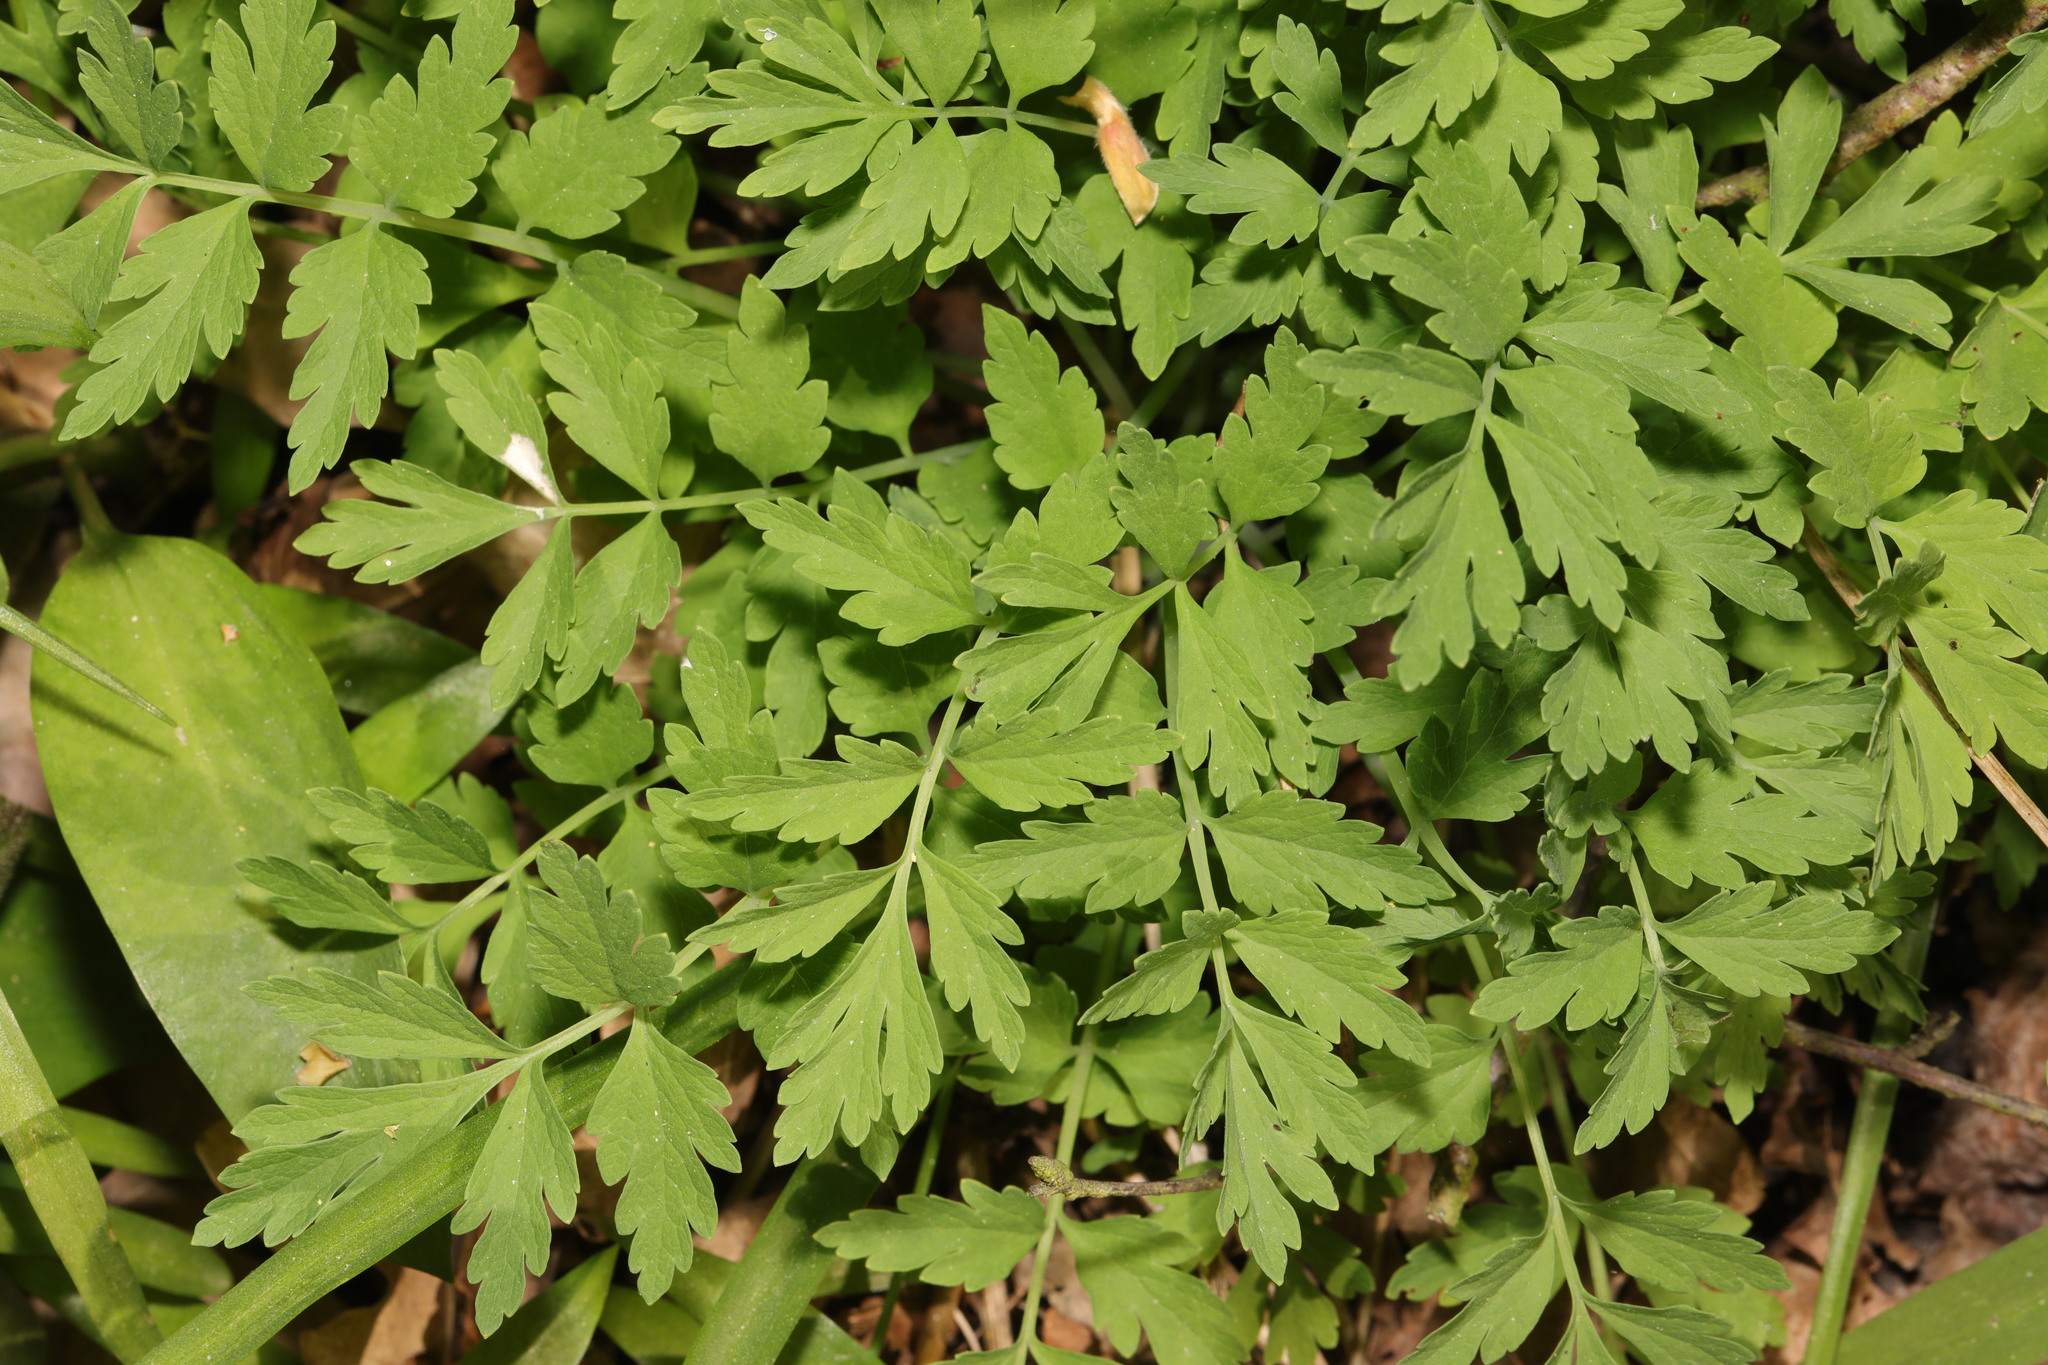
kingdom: Plantae
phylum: Tracheophyta
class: Magnoliopsida
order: Ranunculales
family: Papaveraceae
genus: Papaver
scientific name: Papaver cambricum
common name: Poppy
